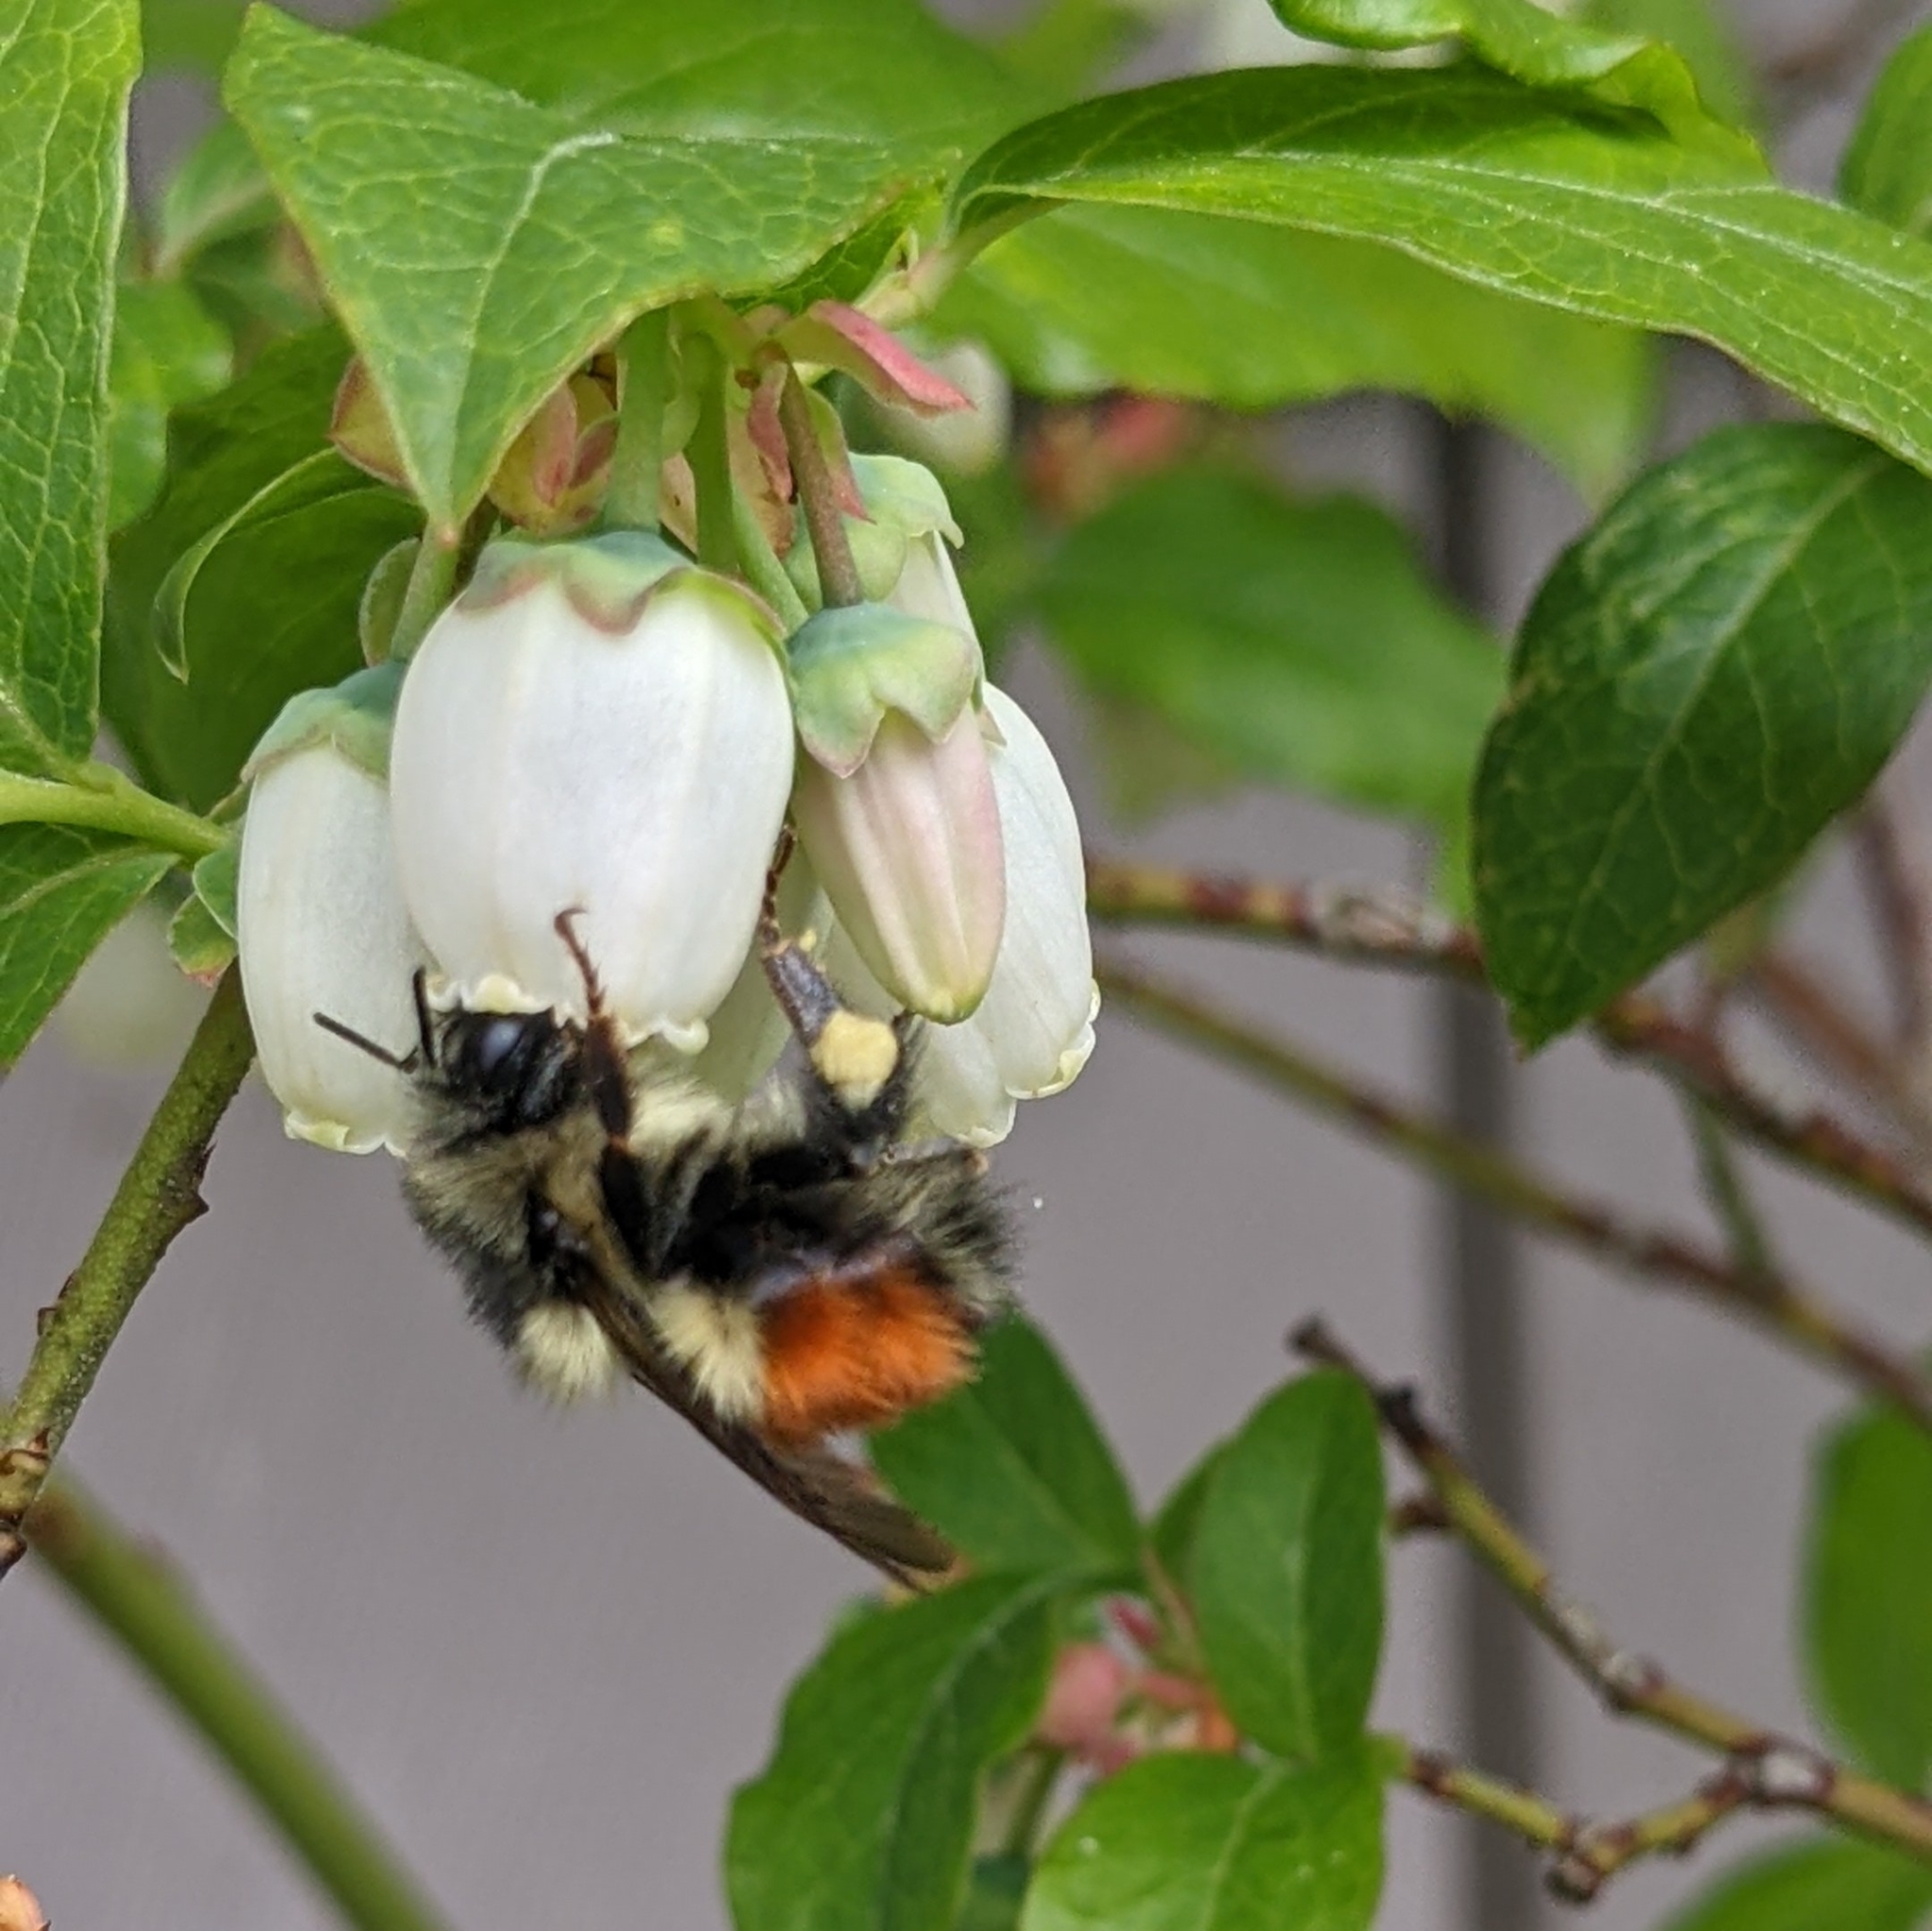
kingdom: Animalia
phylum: Arthropoda
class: Insecta
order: Hymenoptera
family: Apidae
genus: Bombus
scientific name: Bombus melanopygus
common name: Black tail bumble bee
